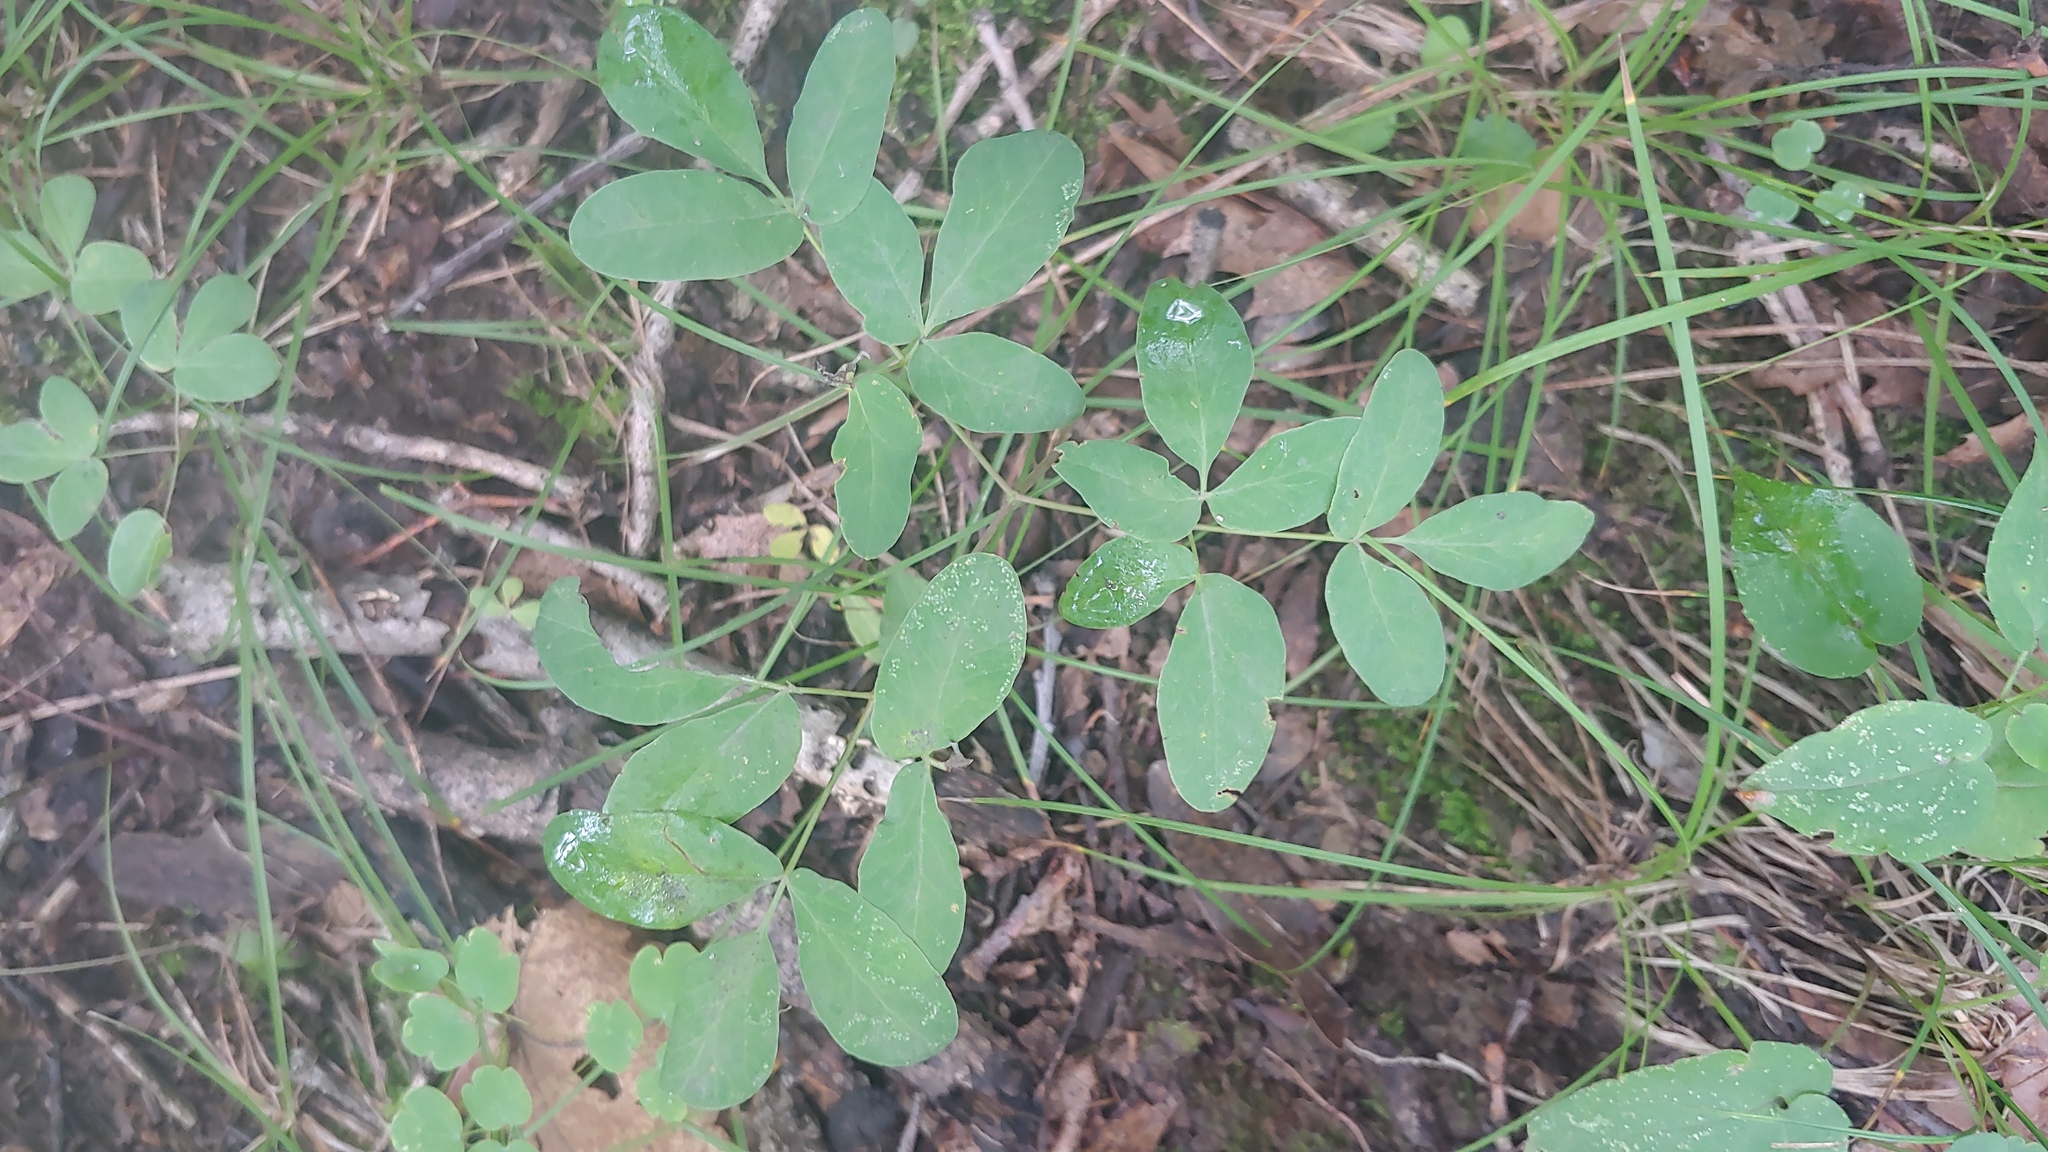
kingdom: Plantae
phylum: Tracheophyta
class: Magnoliopsida
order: Apiales
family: Apiaceae
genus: Taenidia
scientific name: Taenidia integerrima
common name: Golden alexander
